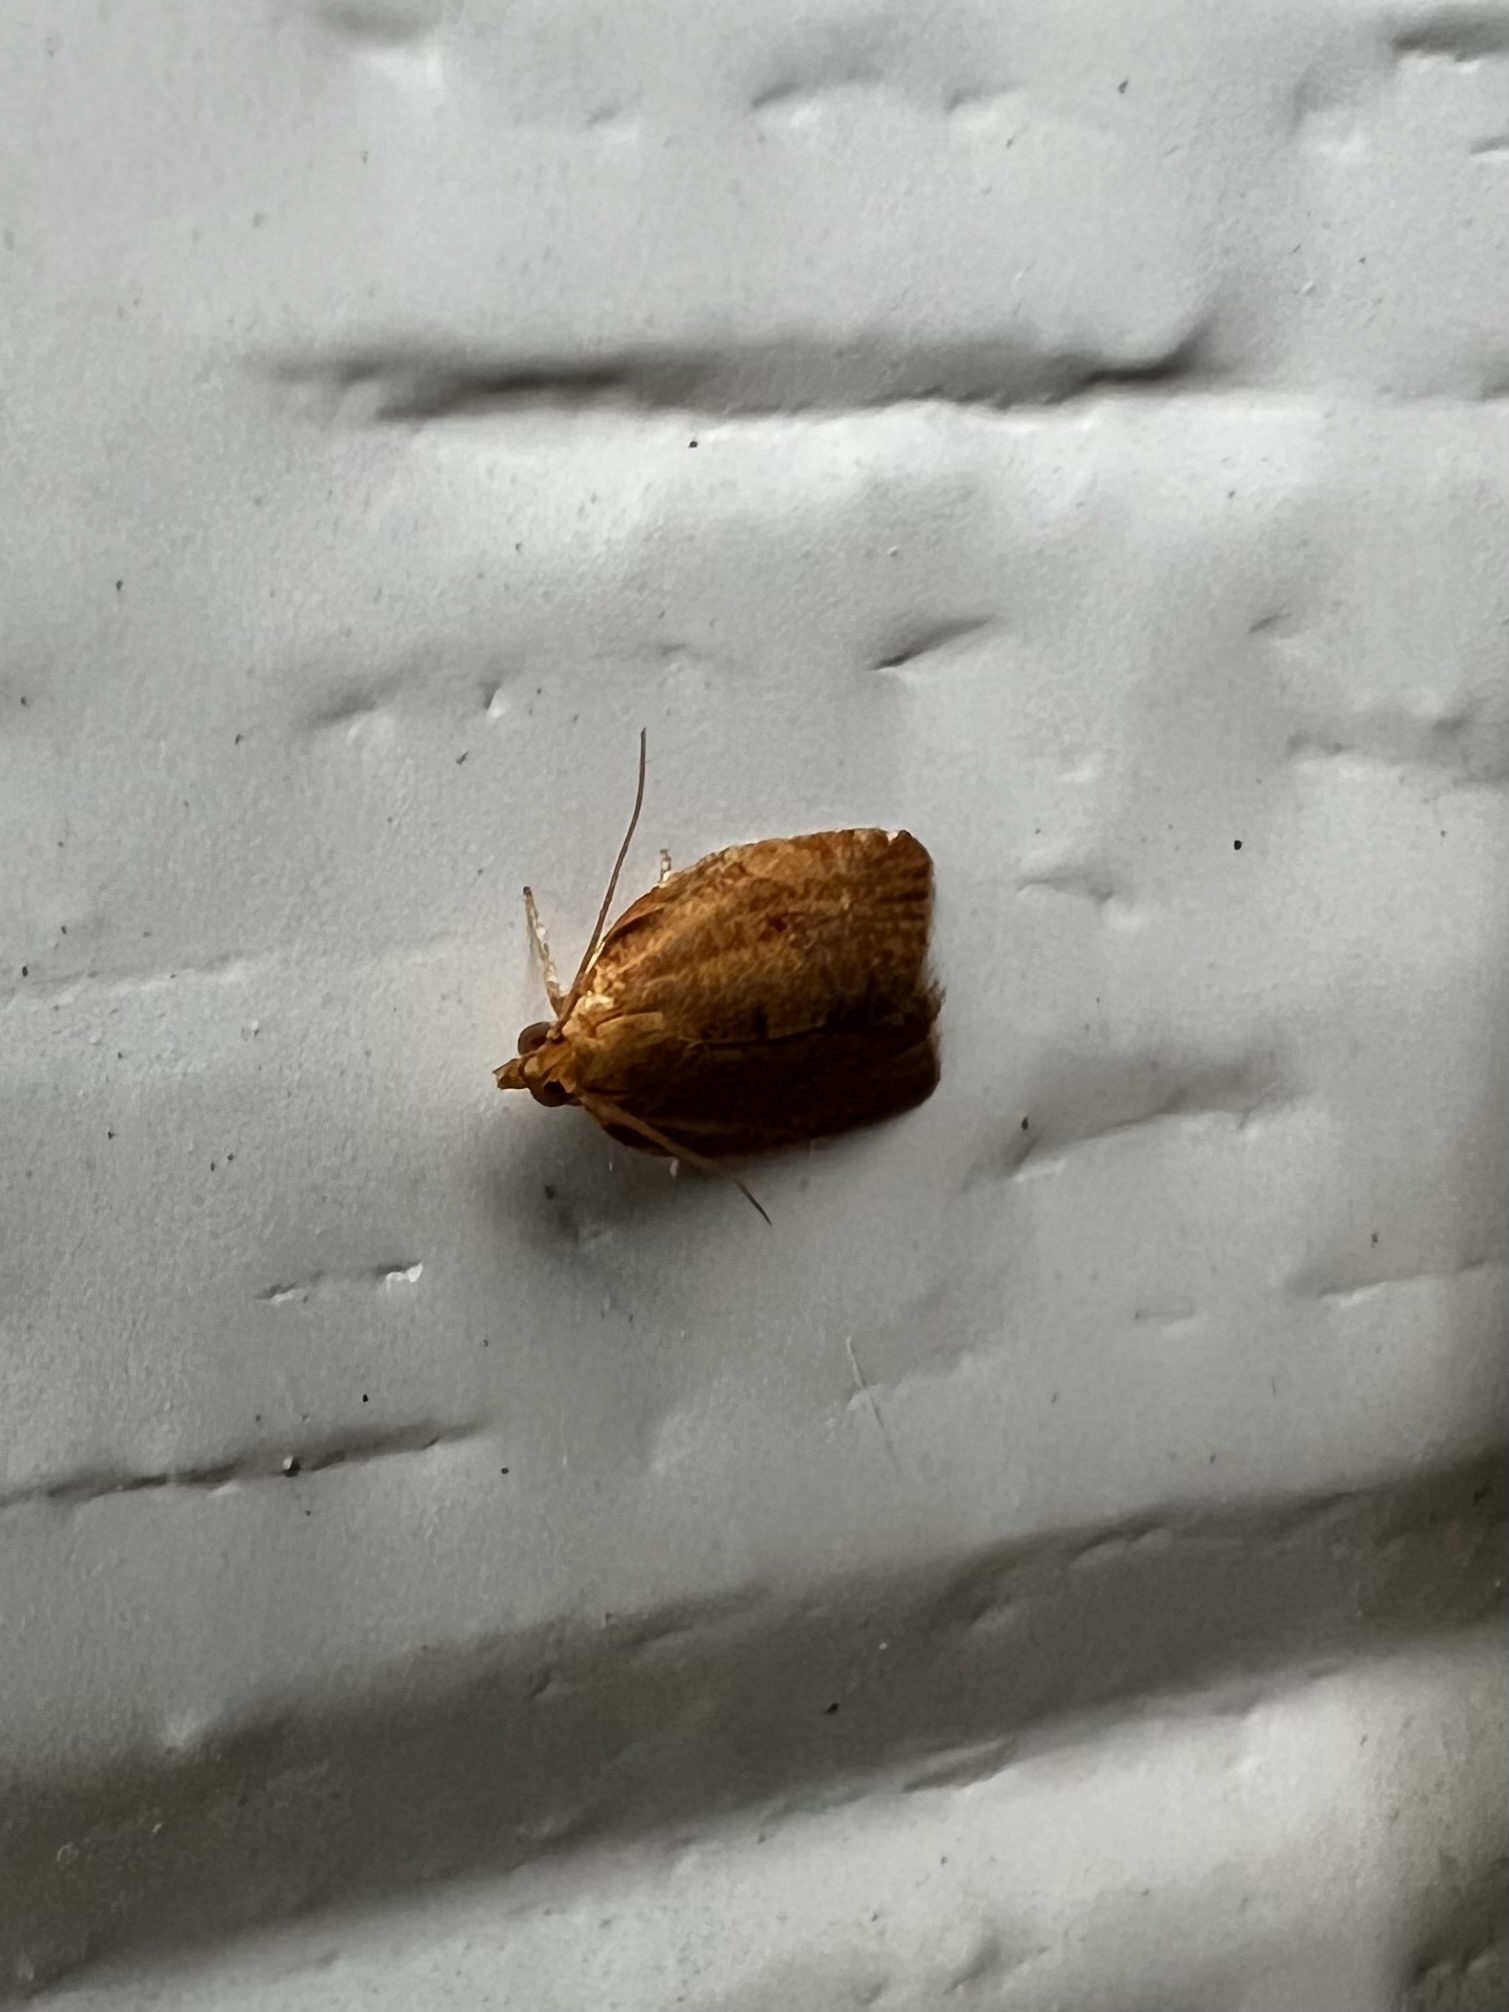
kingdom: Animalia
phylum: Arthropoda
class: Insecta
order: Lepidoptera
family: Tortricidae
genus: Clepsis
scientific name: Clepsis consimilana
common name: Privet tortrix
